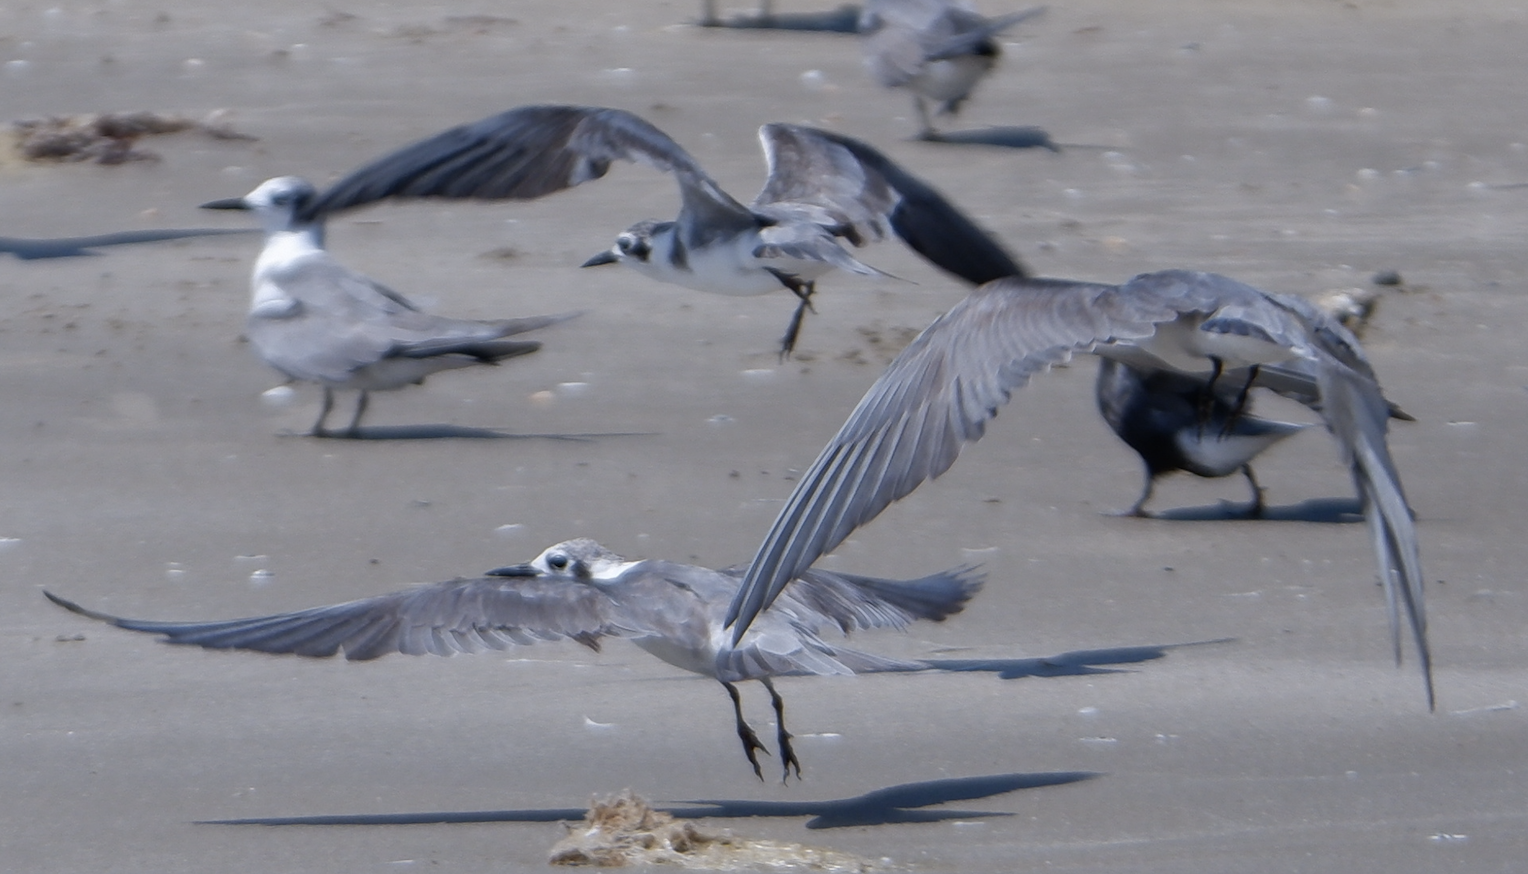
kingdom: Animalia
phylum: Chordata
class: Aves
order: Charadriiformes
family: Laridae
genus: Chlidonias
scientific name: Chlidonias niger
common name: Black tern
